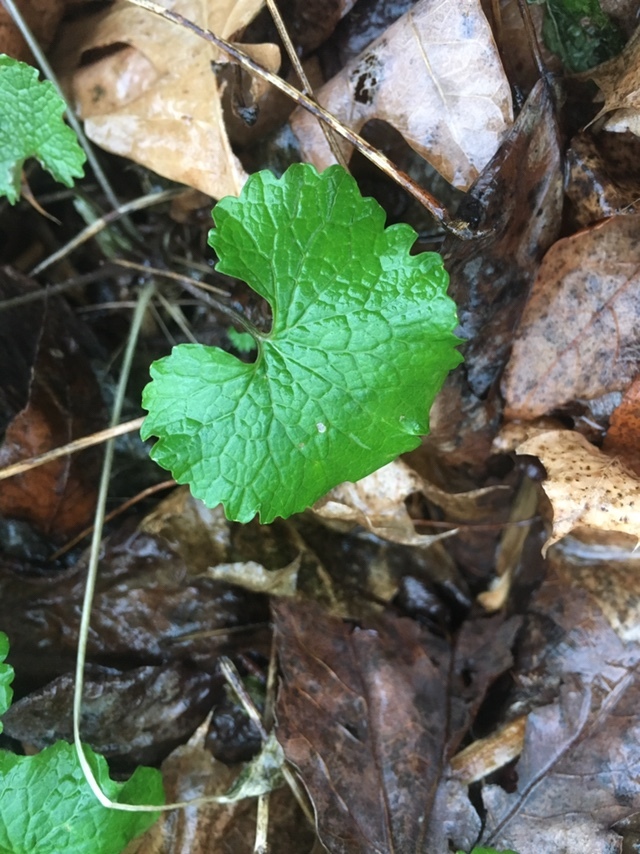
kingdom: Plantae
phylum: Tracheophyta
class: Magnoliopsida
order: Brassicales
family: Brassicaceae
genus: Alliaria
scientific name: Alliaria petiolata
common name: Garlic mustard
